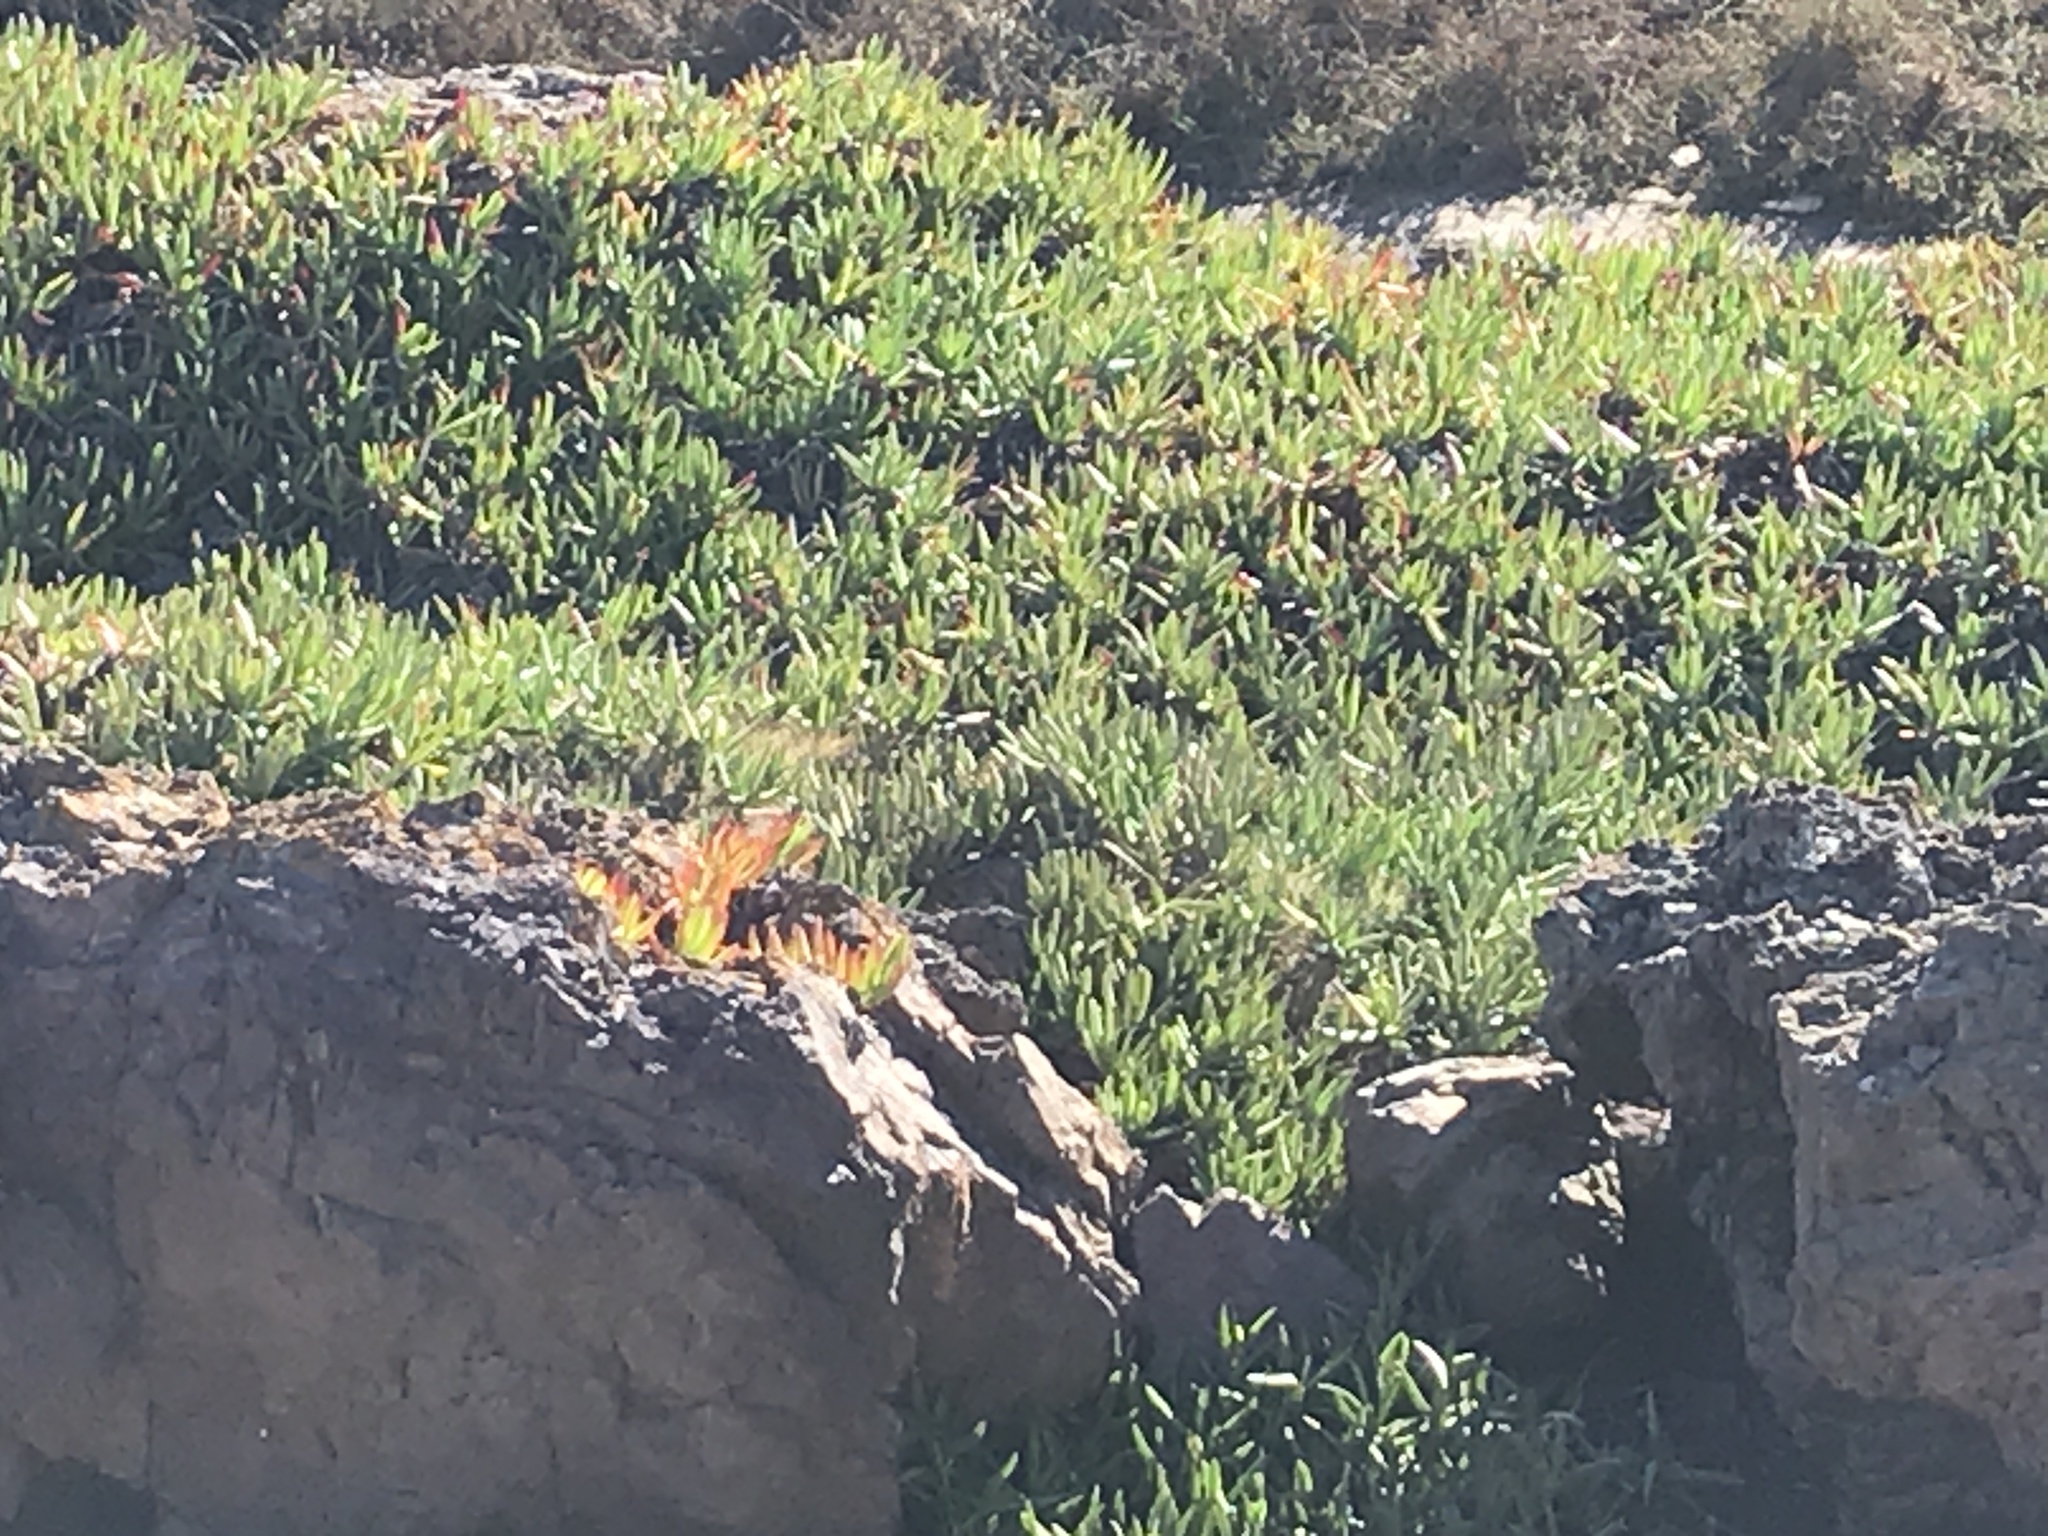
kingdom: Plantae
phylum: Tracheophyta
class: Magnoliopsida
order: Caryophyllales
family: Aizoaceae
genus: Carpobrotus
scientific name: Carpobrotus edulis
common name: Hottentot-fig
